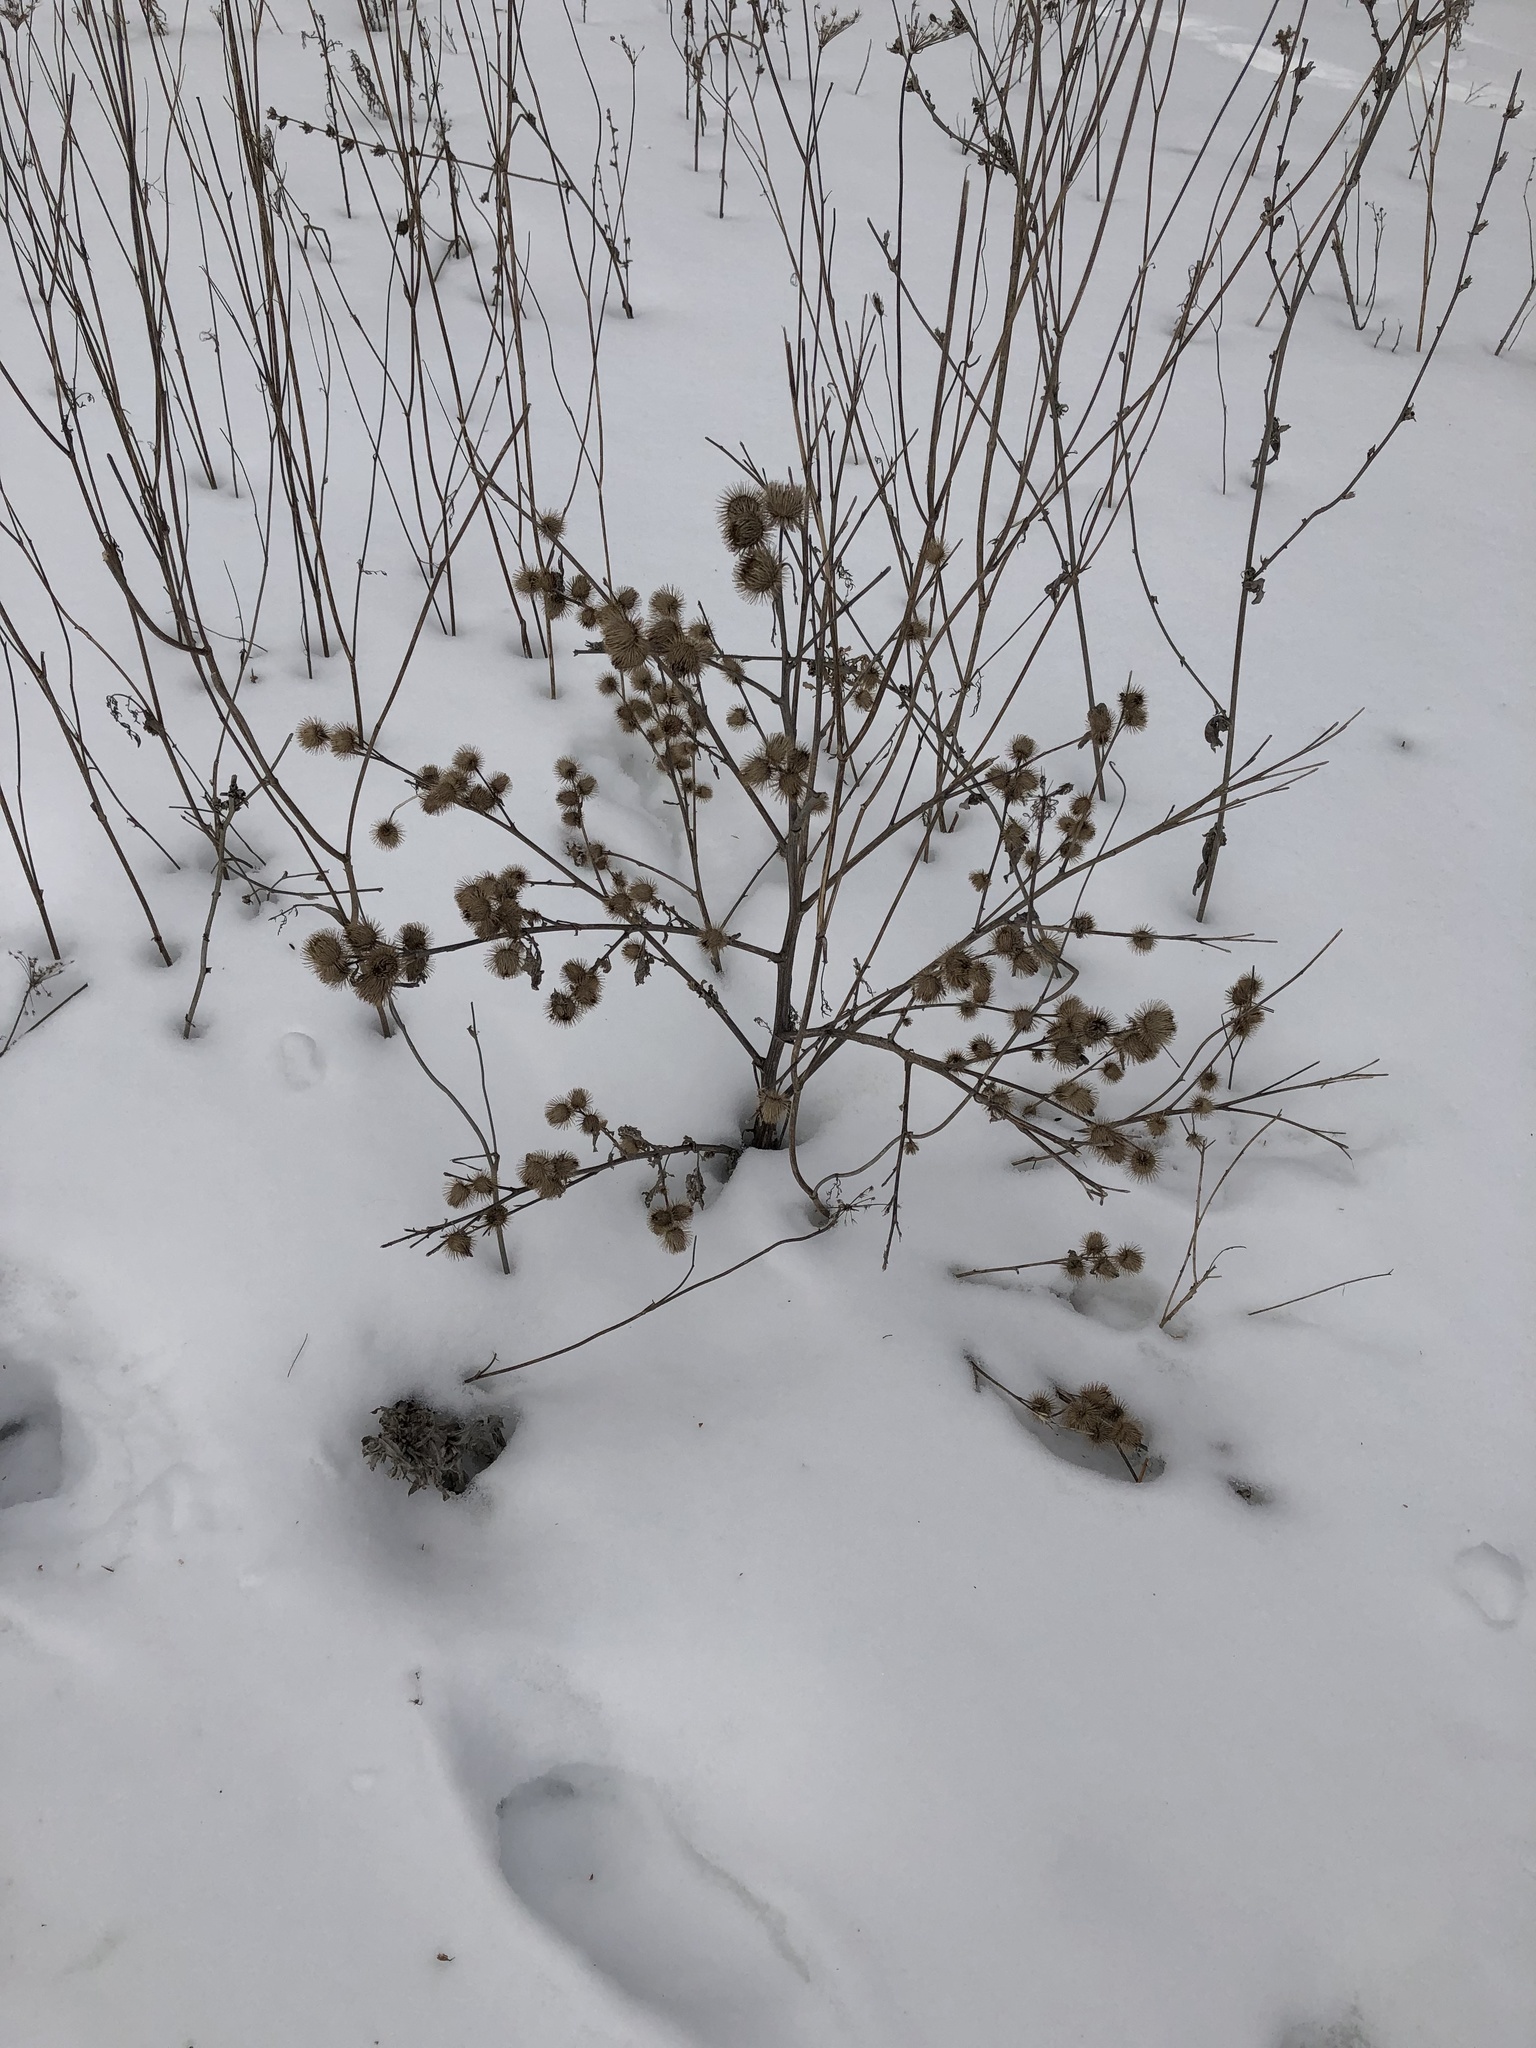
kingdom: Plantae
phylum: Tracheophyta
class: Magnoliopsida
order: Asterales
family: Asteraceae
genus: Arctium
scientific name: Arctium minus
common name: Lesser burdock
